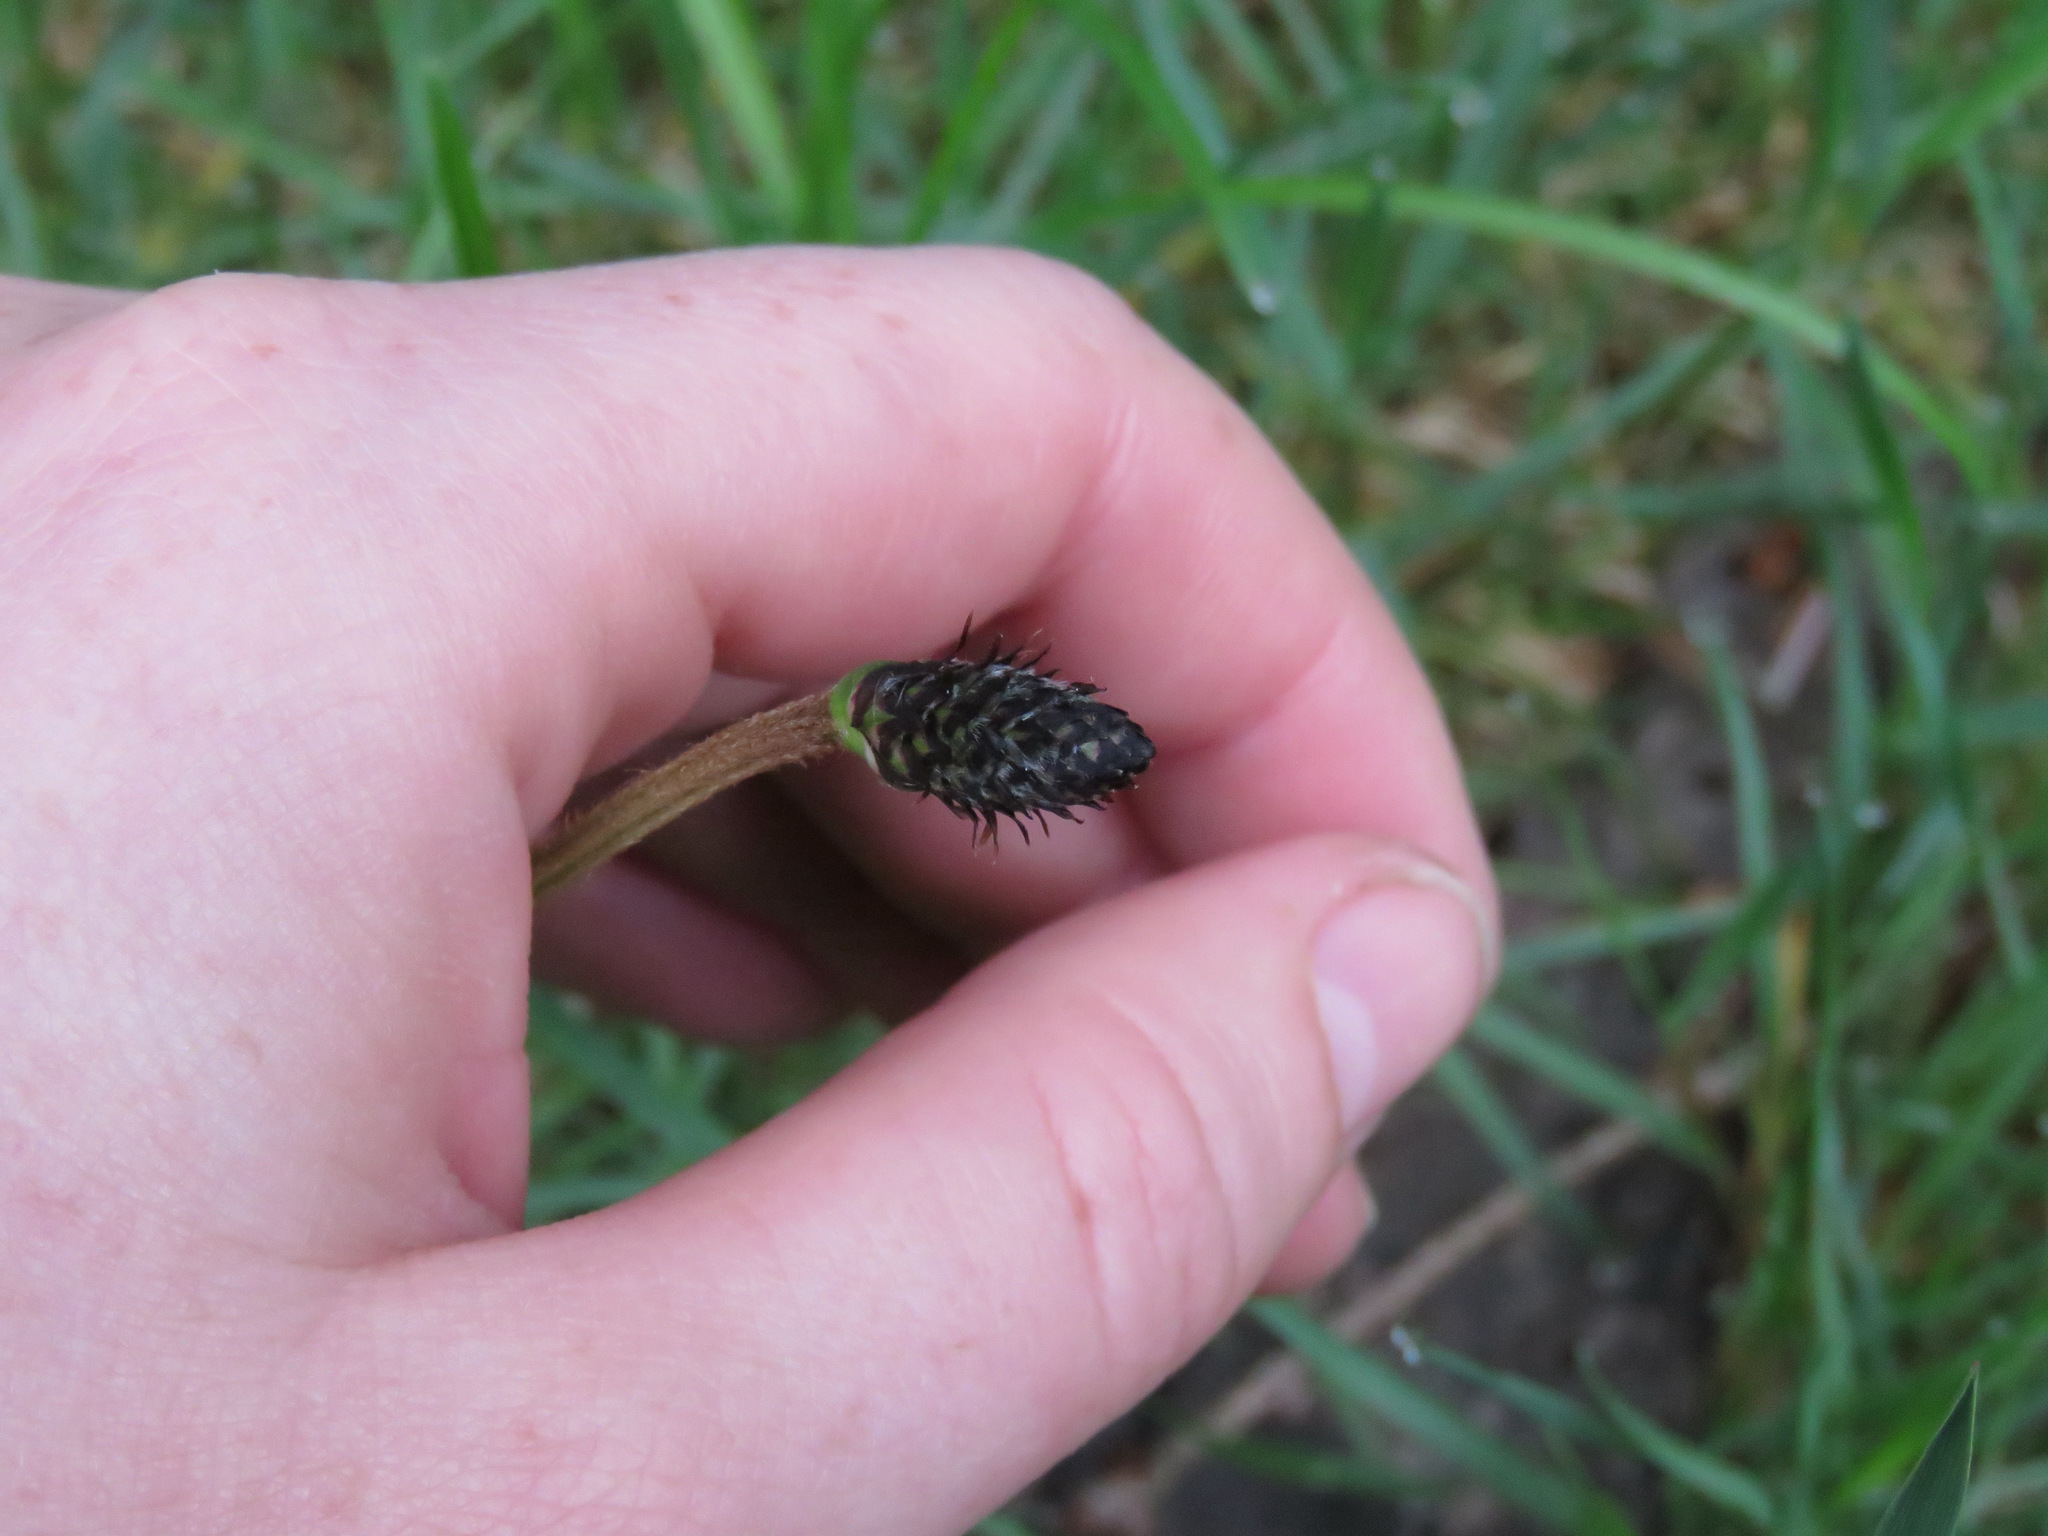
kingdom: Plantae
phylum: Tracheophyta
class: Magnoliopsida
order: Lamiales
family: Plantaginaceae
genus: Plantago
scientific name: Plantago lanceolata
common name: Ribwort plantain
